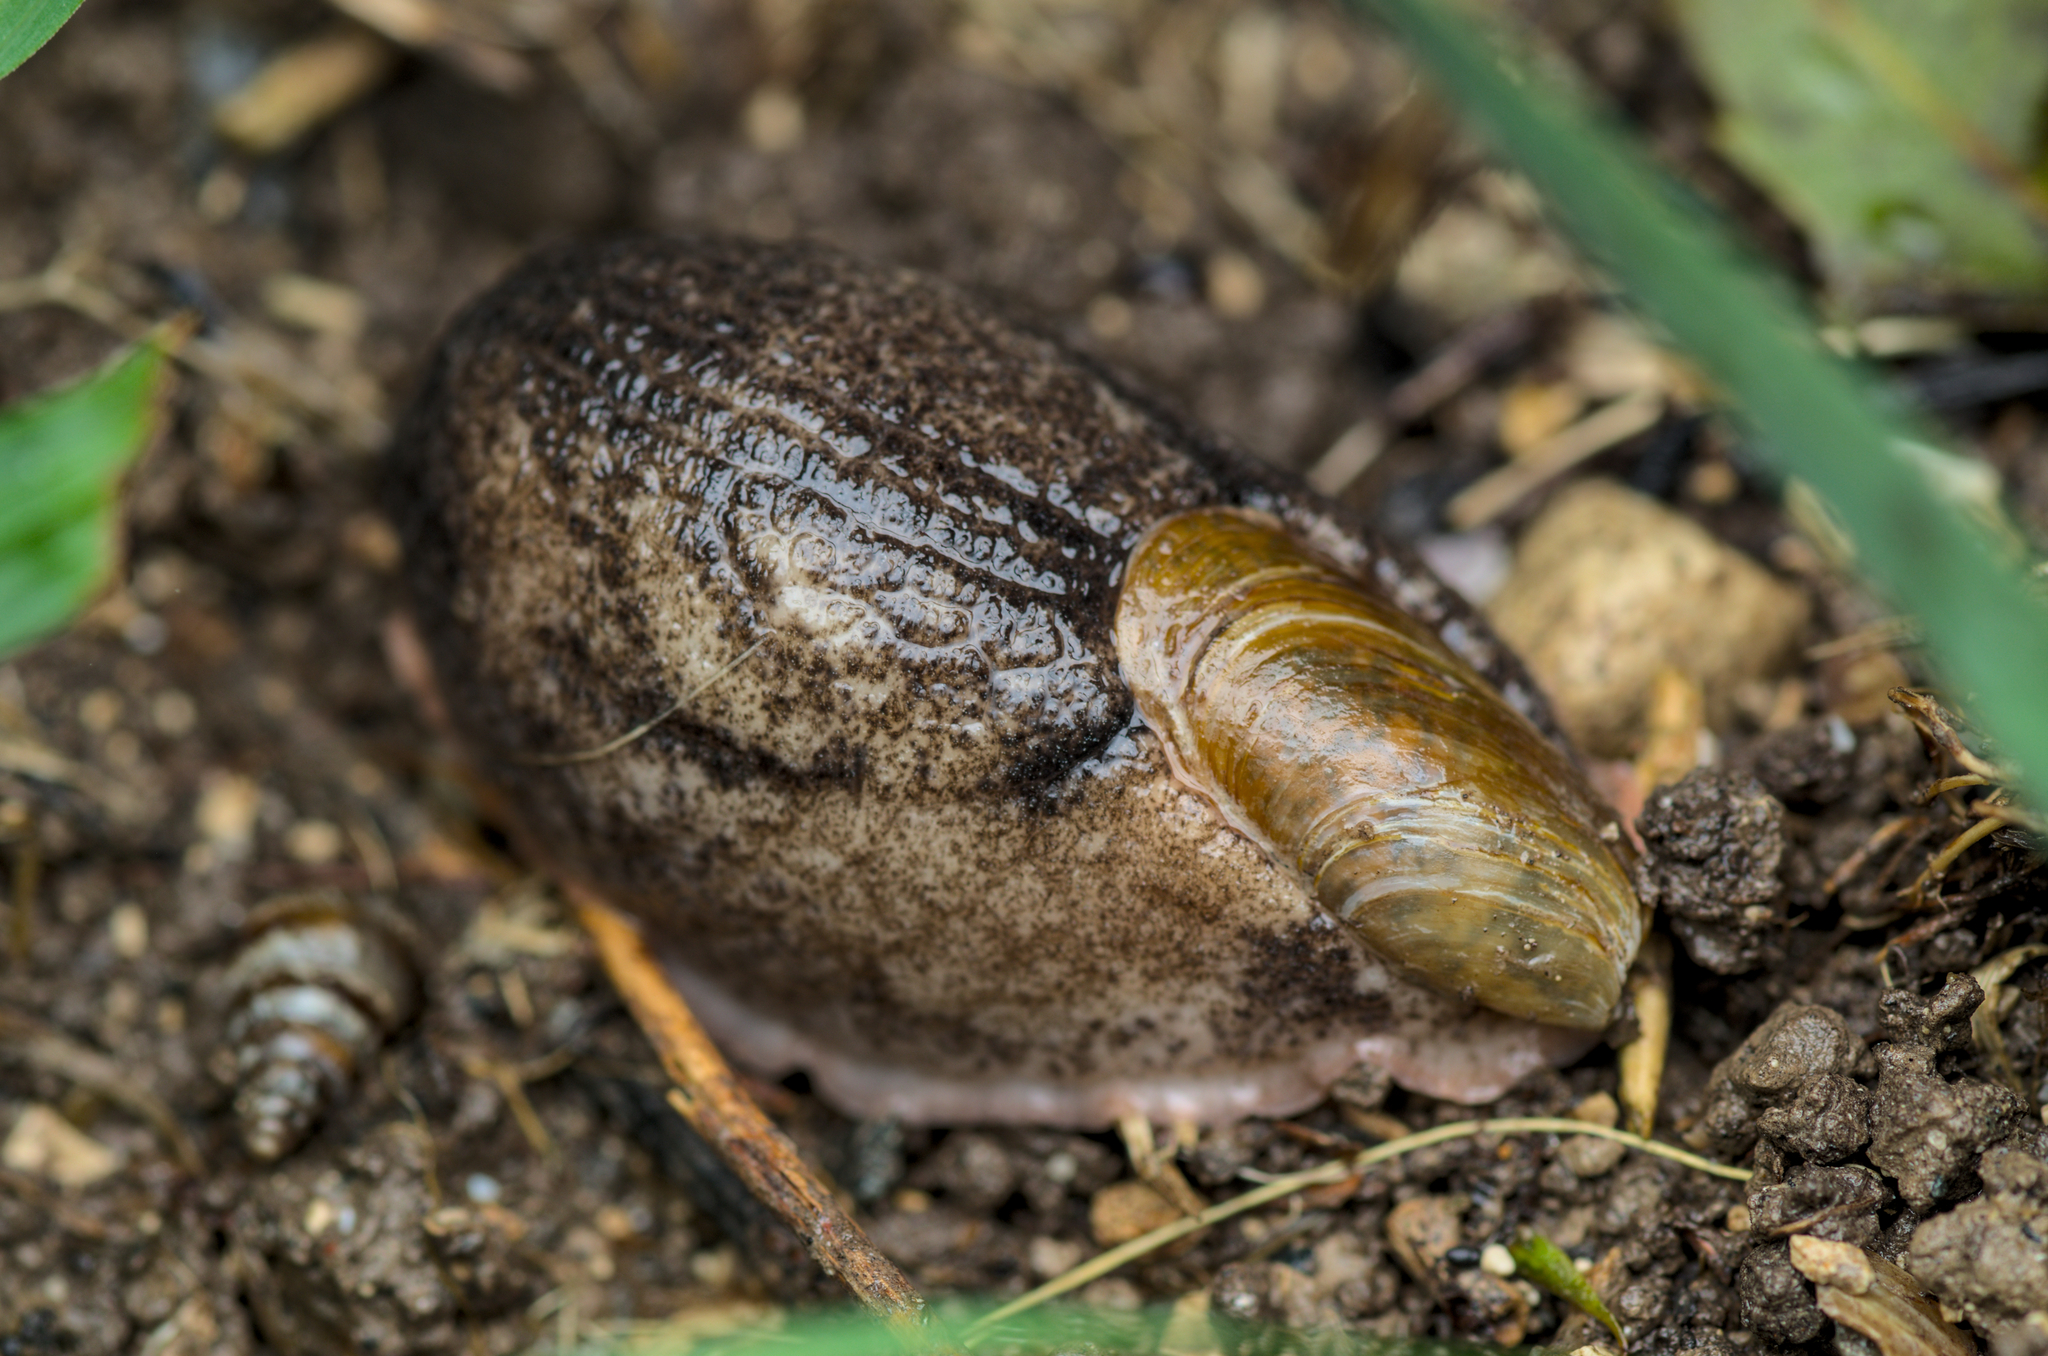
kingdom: Animalia
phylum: Mollusca
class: Gastropoda
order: Stylommatophora
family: Testacellidae
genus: Testacella
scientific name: Testacella maugei
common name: Mauge's slug
